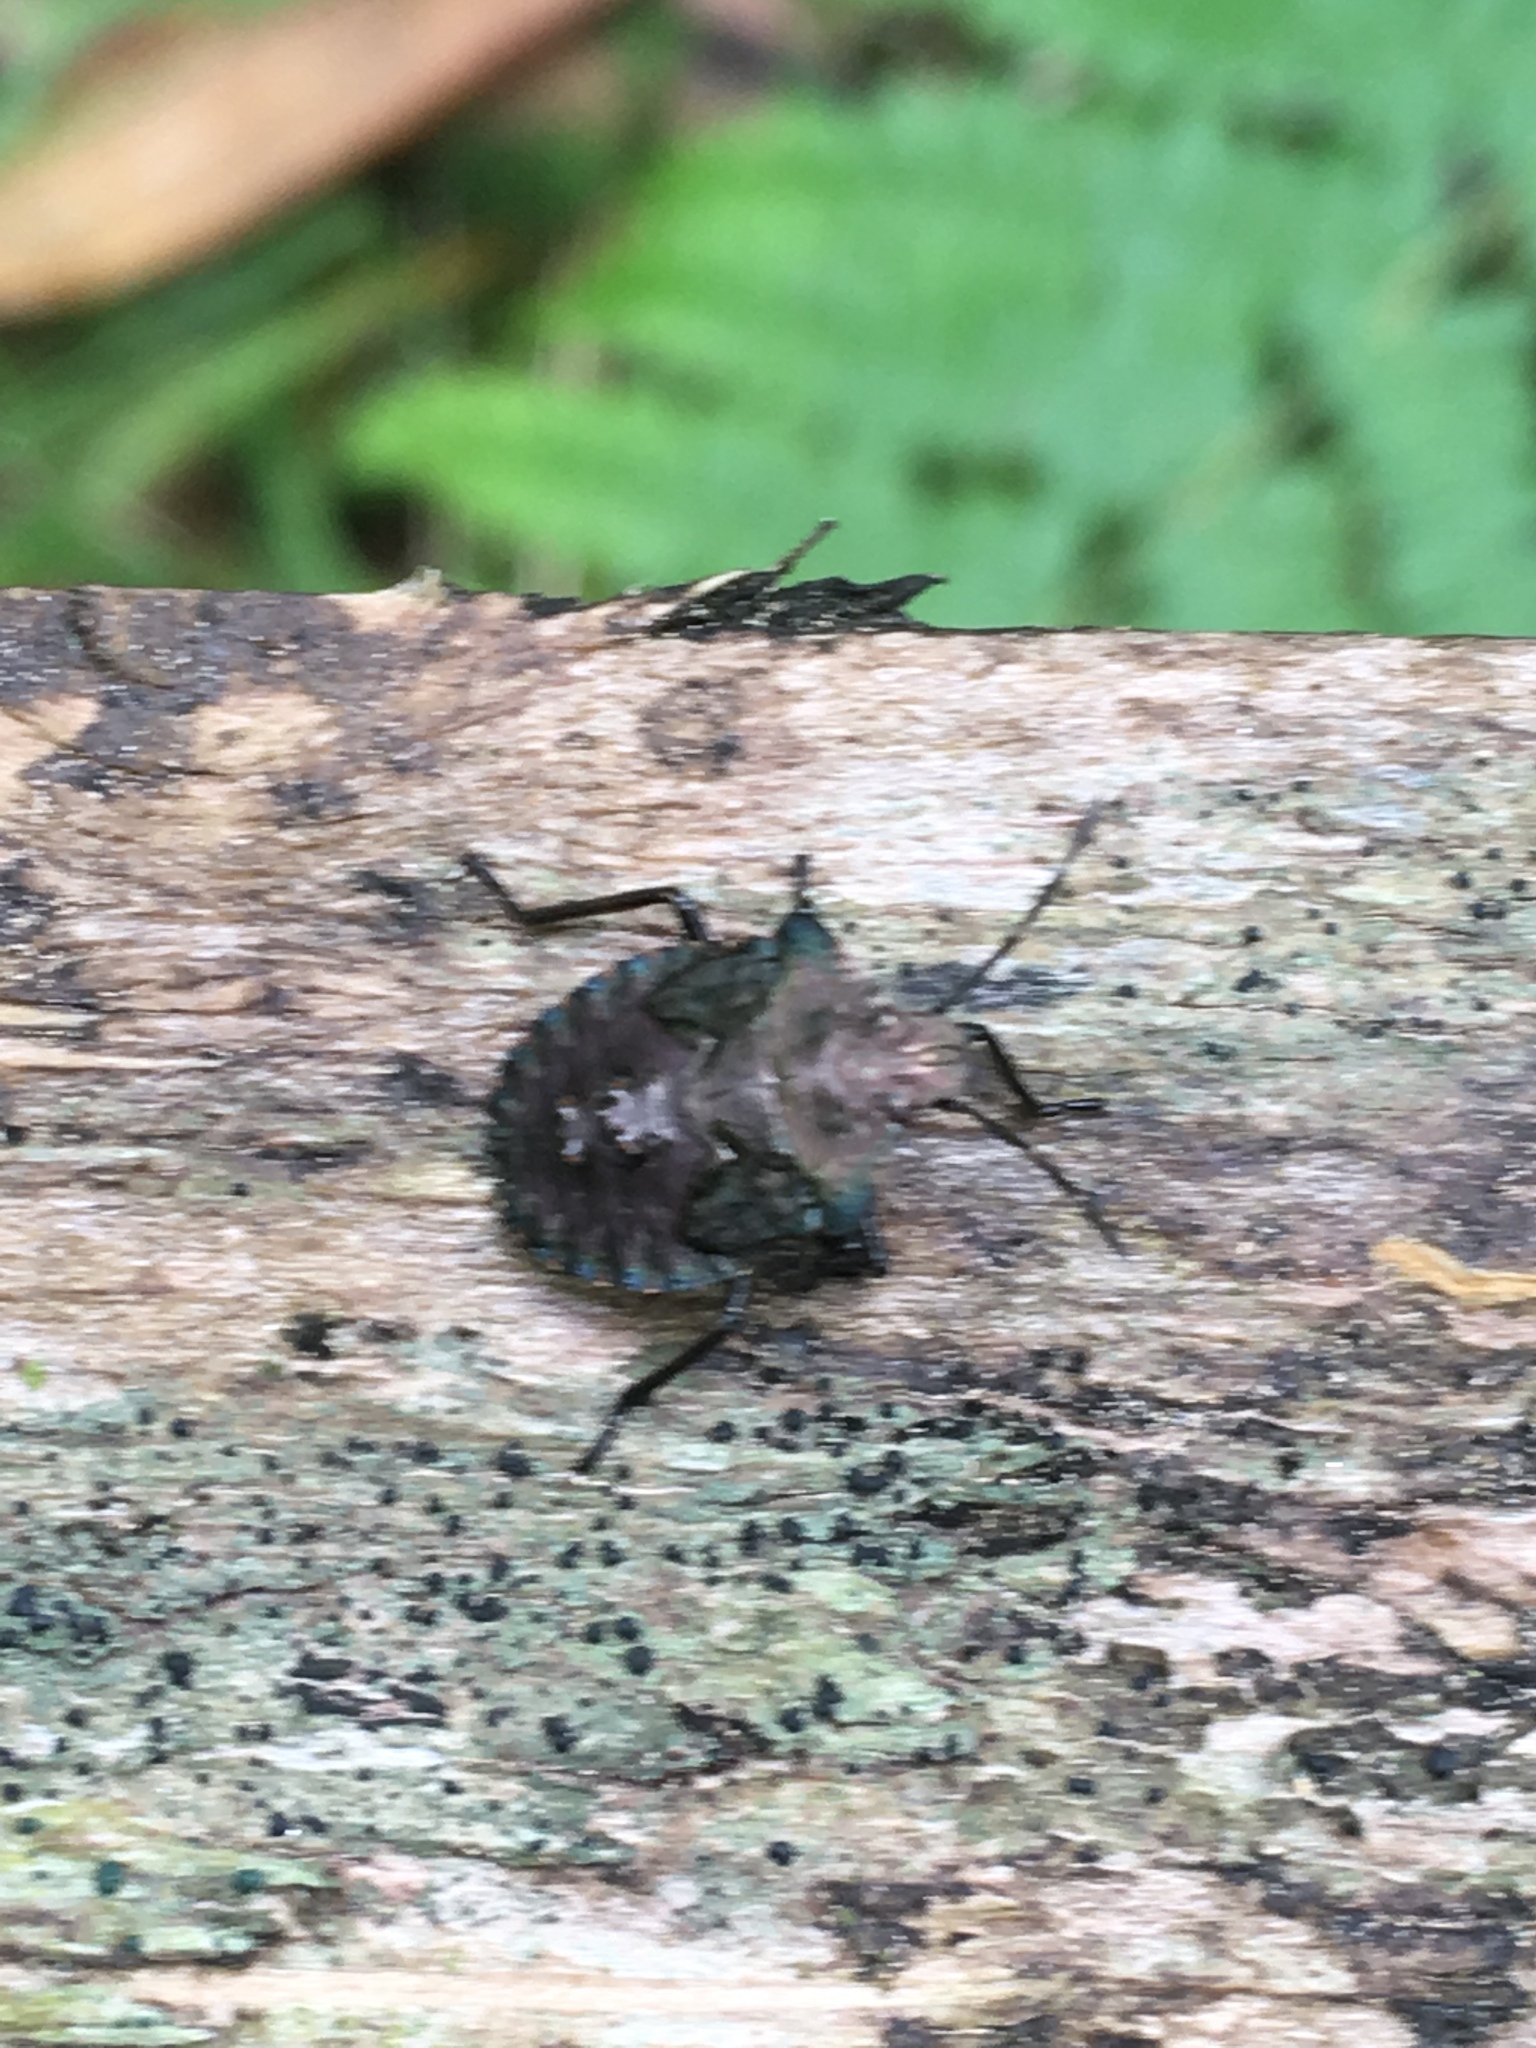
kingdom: Animalia
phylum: Arthropoda
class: Insecta
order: Hemiptera
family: Pentatomidae
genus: Pentatoma
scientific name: Pentatoma rufipes
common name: Forest bug
